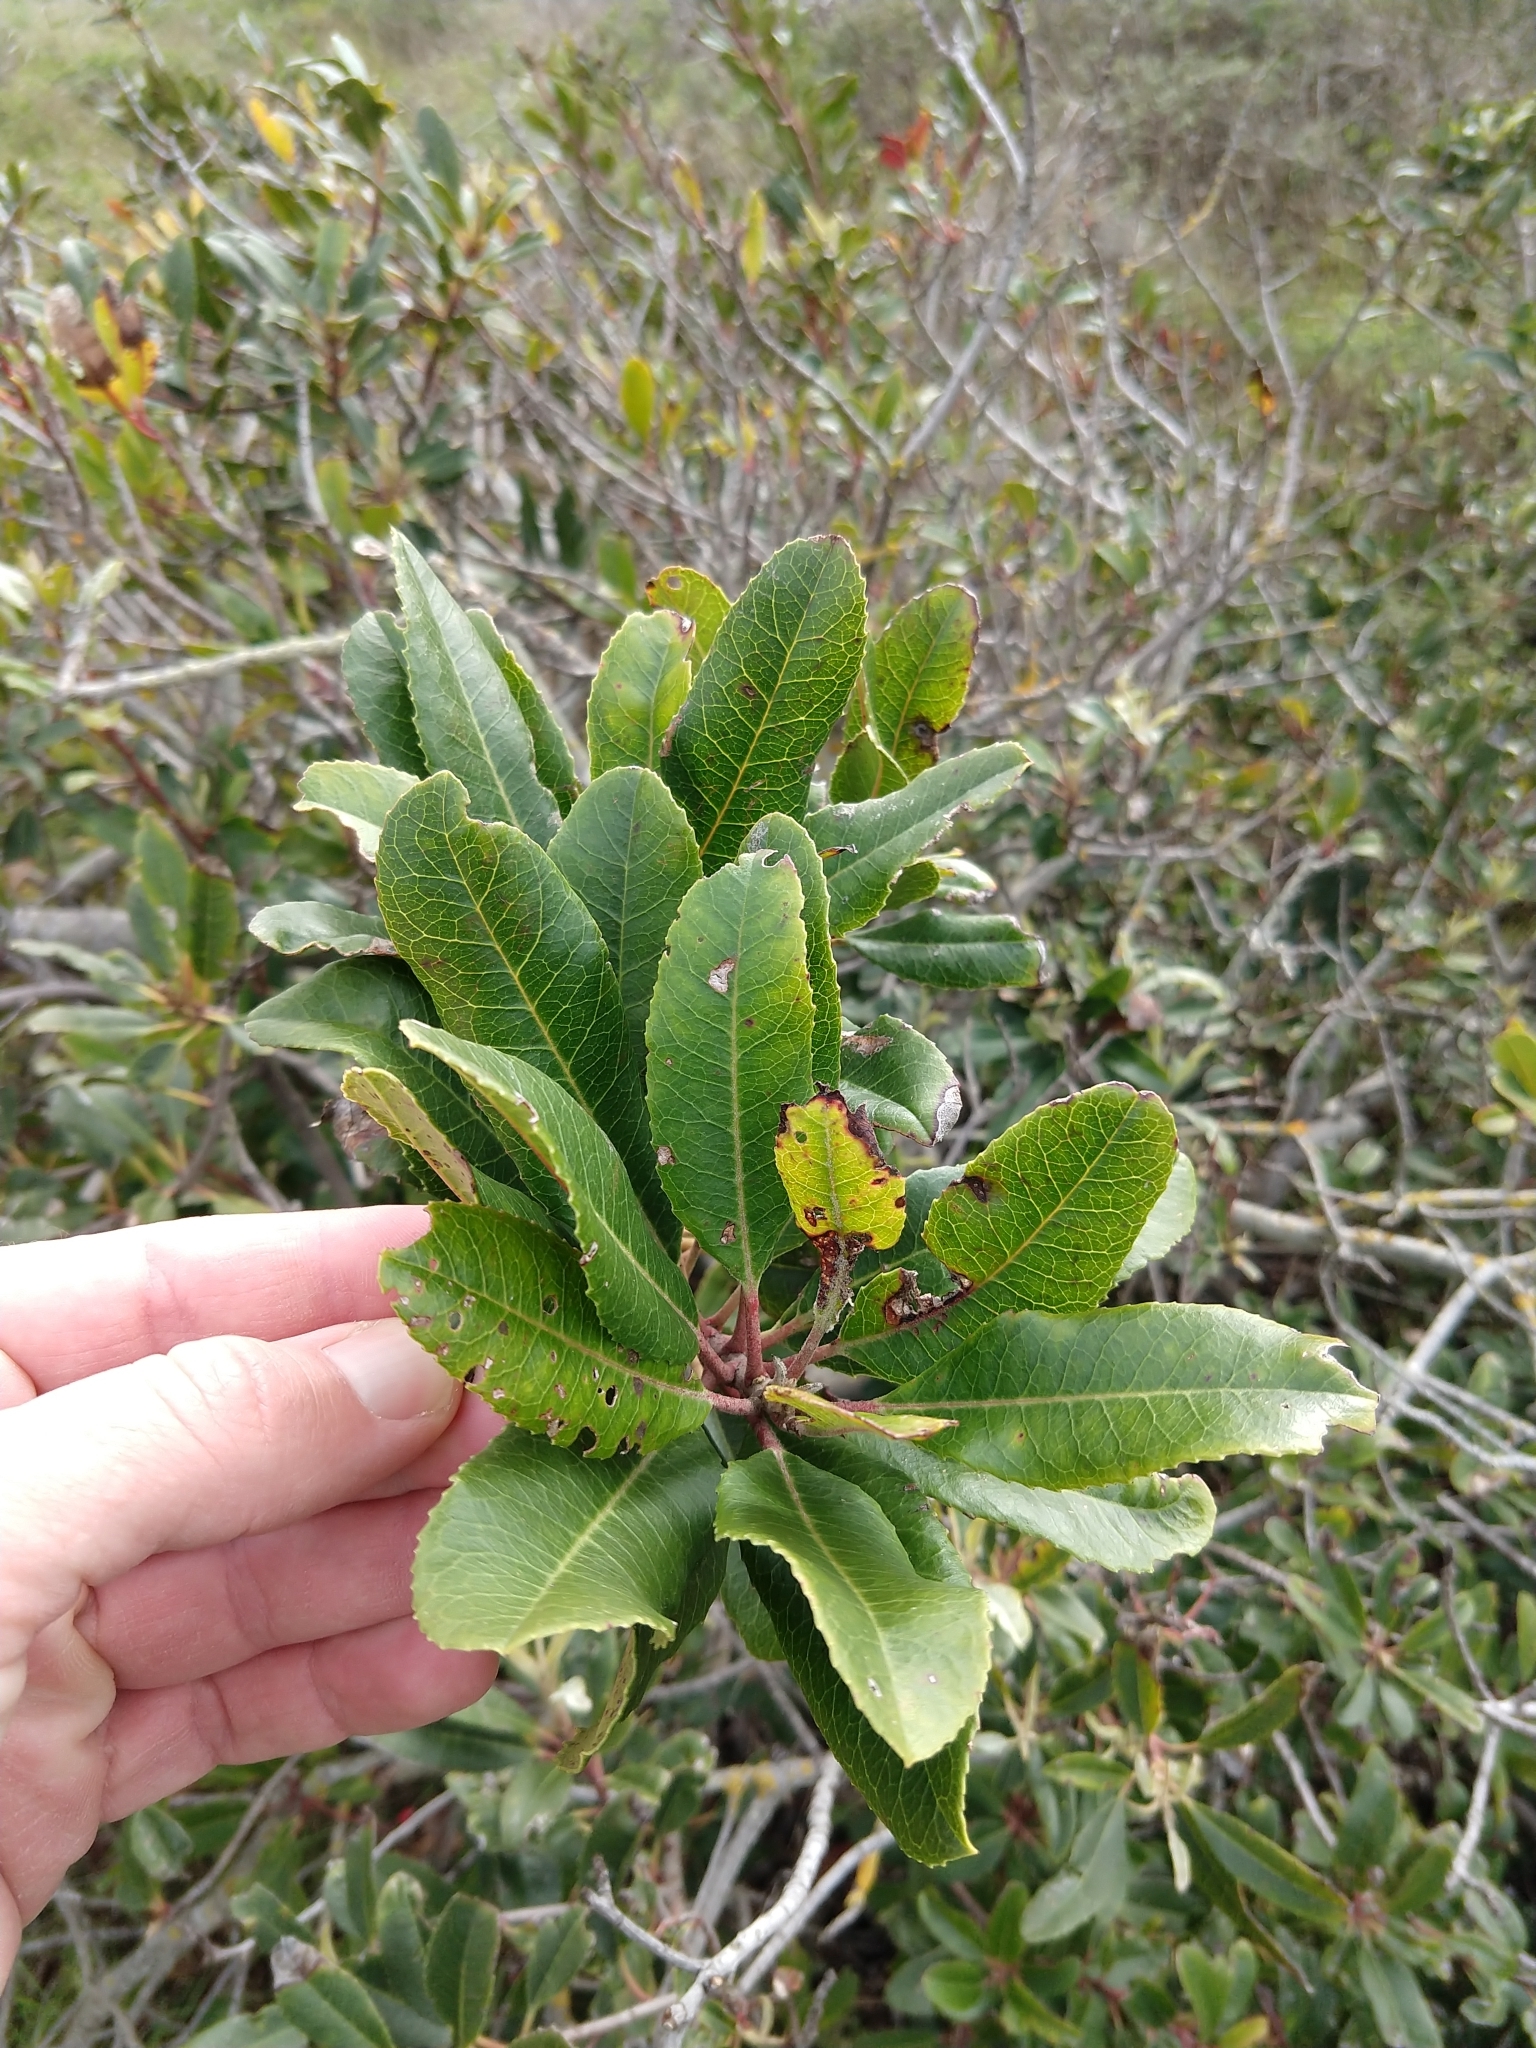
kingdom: Plantae
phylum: Tracheophyta
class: Magnoliopsida
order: Rosales
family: Rosaceae
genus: Heteromeles
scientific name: Heteromeles arbutifolia
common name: California-holly
